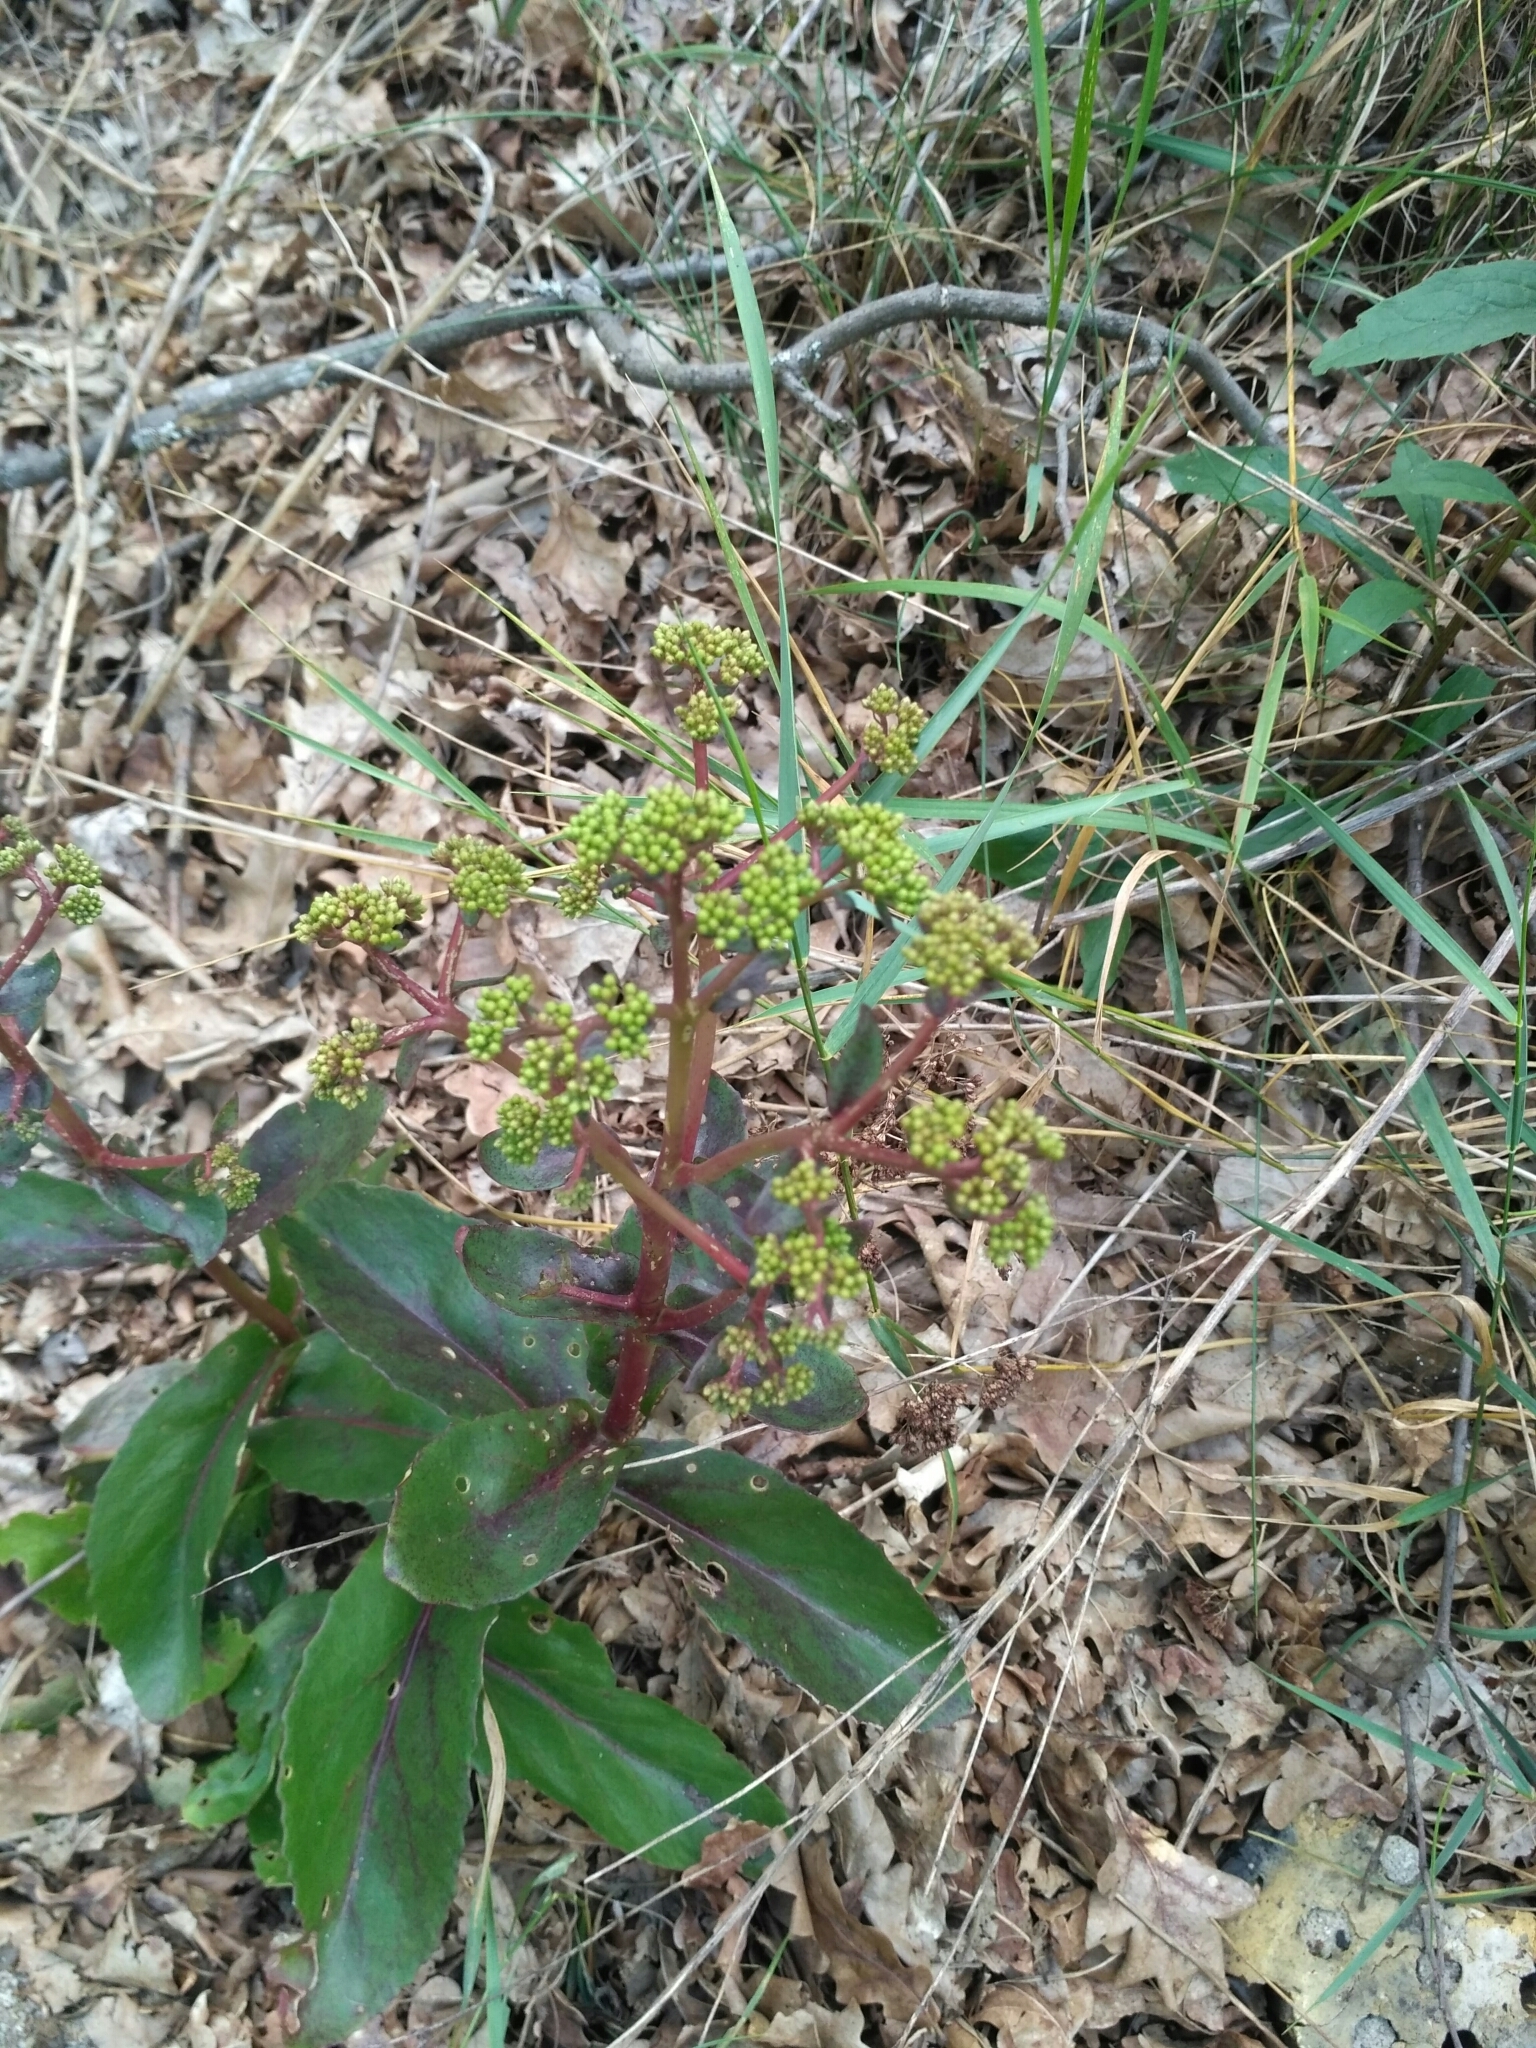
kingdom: Plantae
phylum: Tracheophyta
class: Magnoliopsida
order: Saxifragales
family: Crassulaceae
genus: Hylotelephium
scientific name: Hylotelephium maximum
